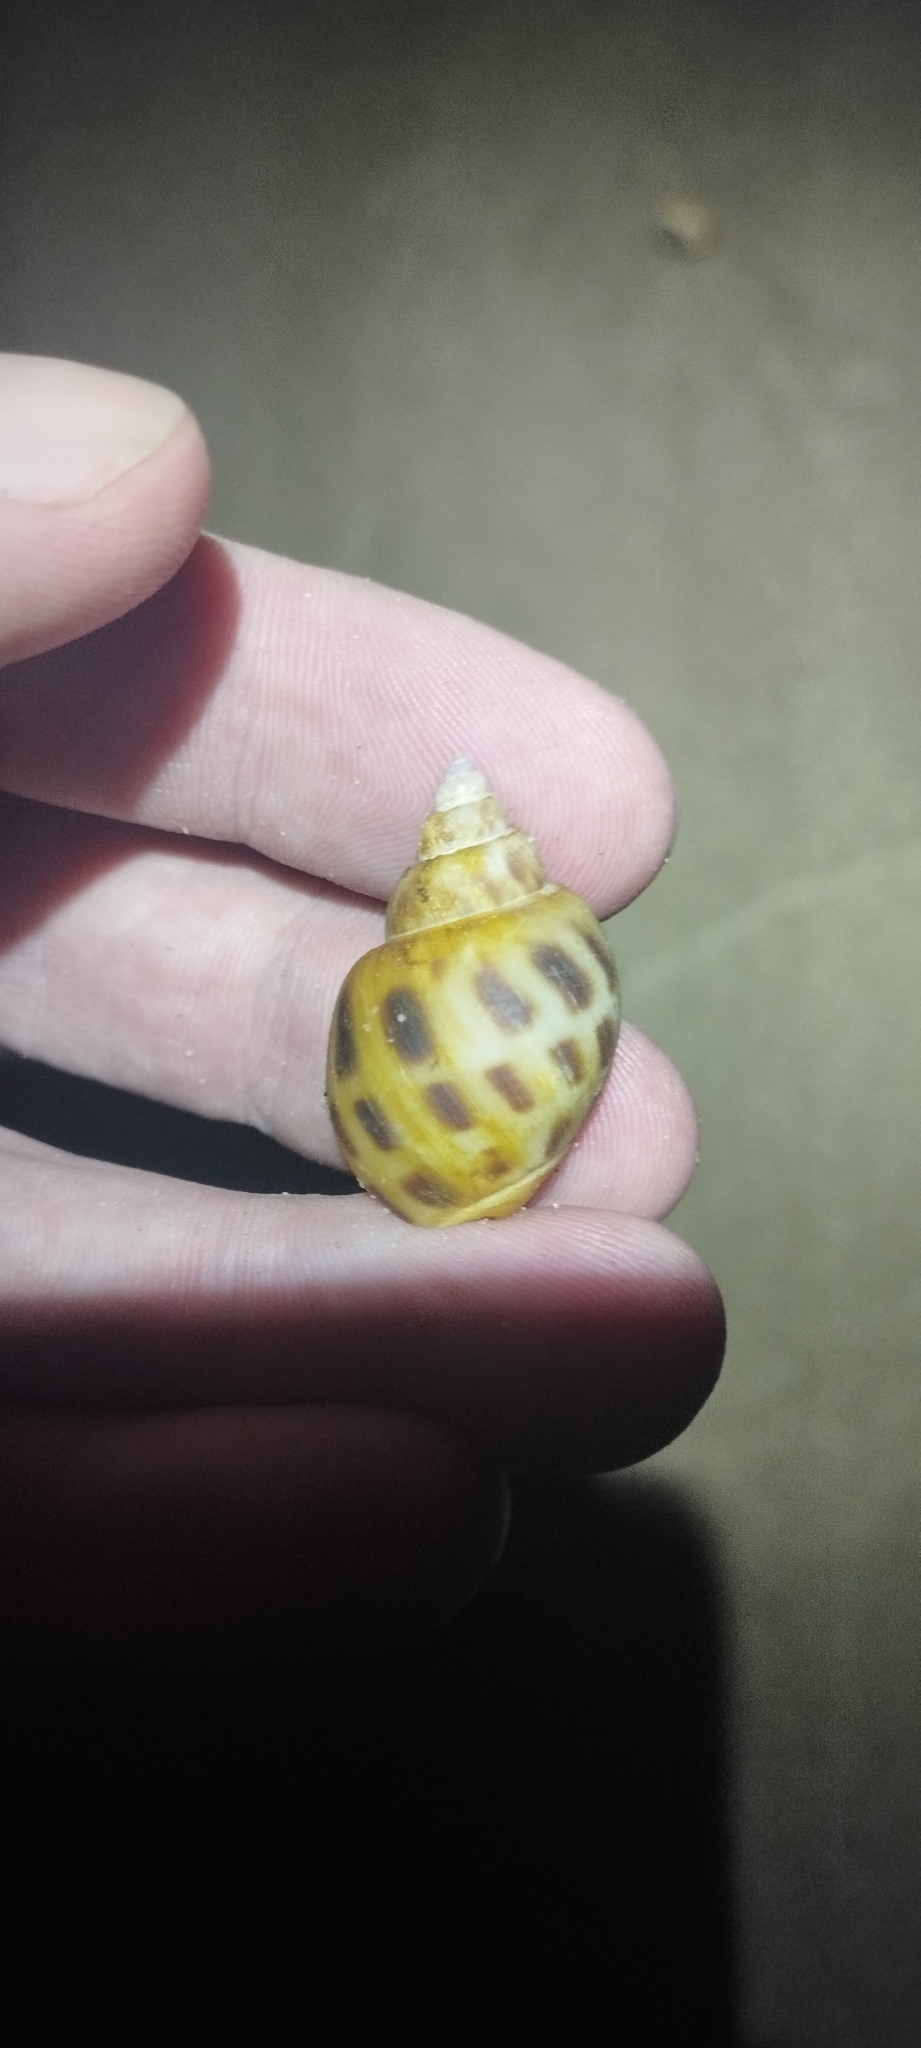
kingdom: Animalia
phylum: Mollusca
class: Gastropoda
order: Neogastropoda
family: Babyloniidae
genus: Babylonia
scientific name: Babylonia areolata
